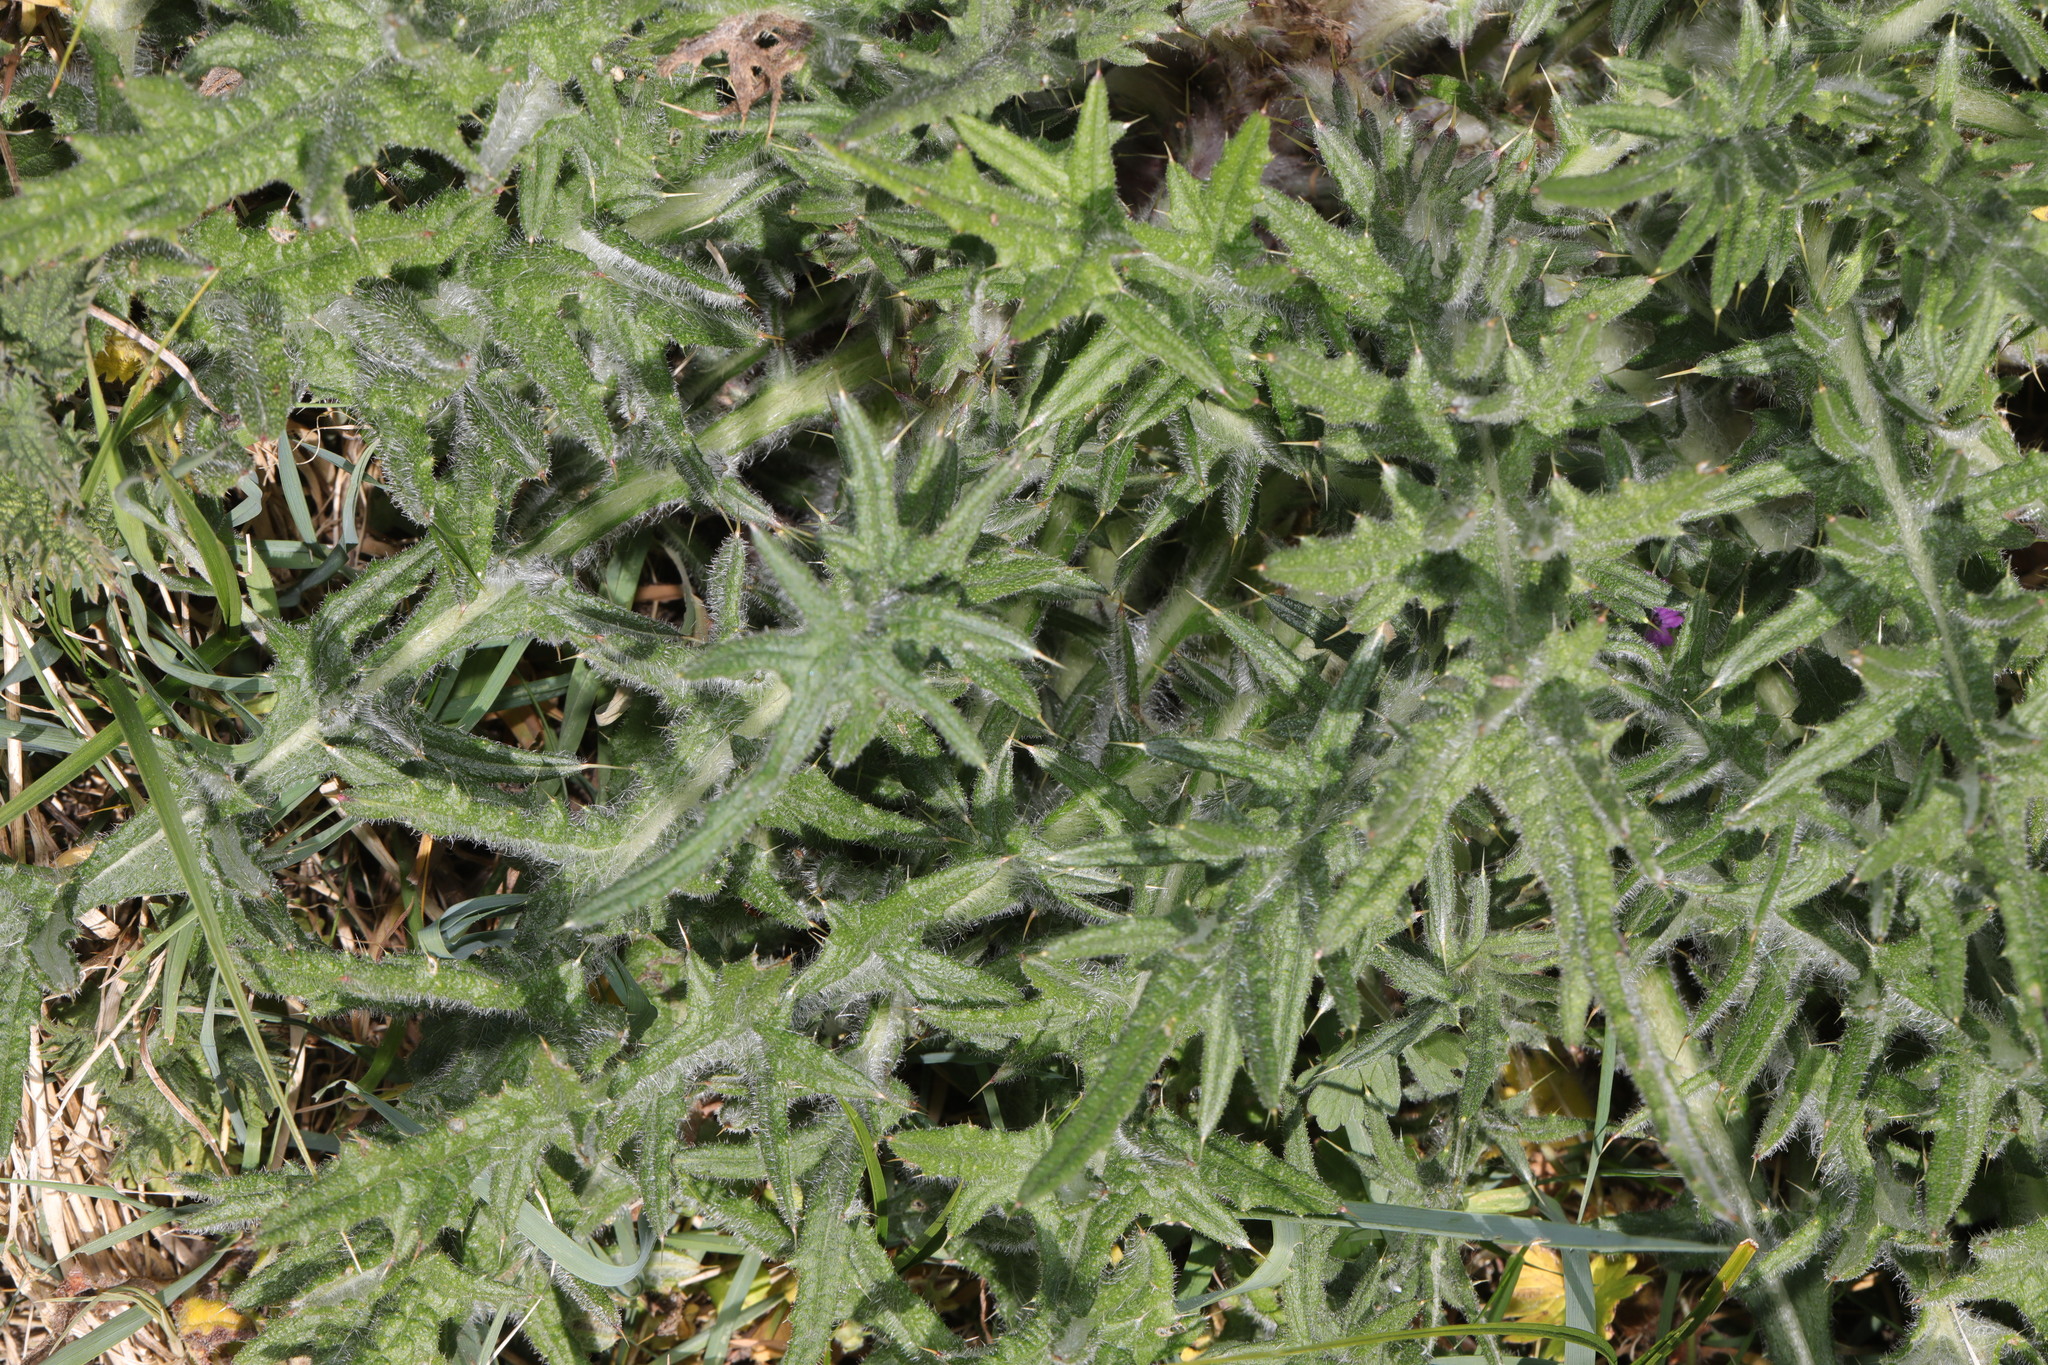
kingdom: Plantae
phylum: Tracheophyta
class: Magnoliopsida
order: Asterales
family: Asteraceae
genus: Cirsium
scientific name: Cirsium vulgare
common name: Bull thistle
